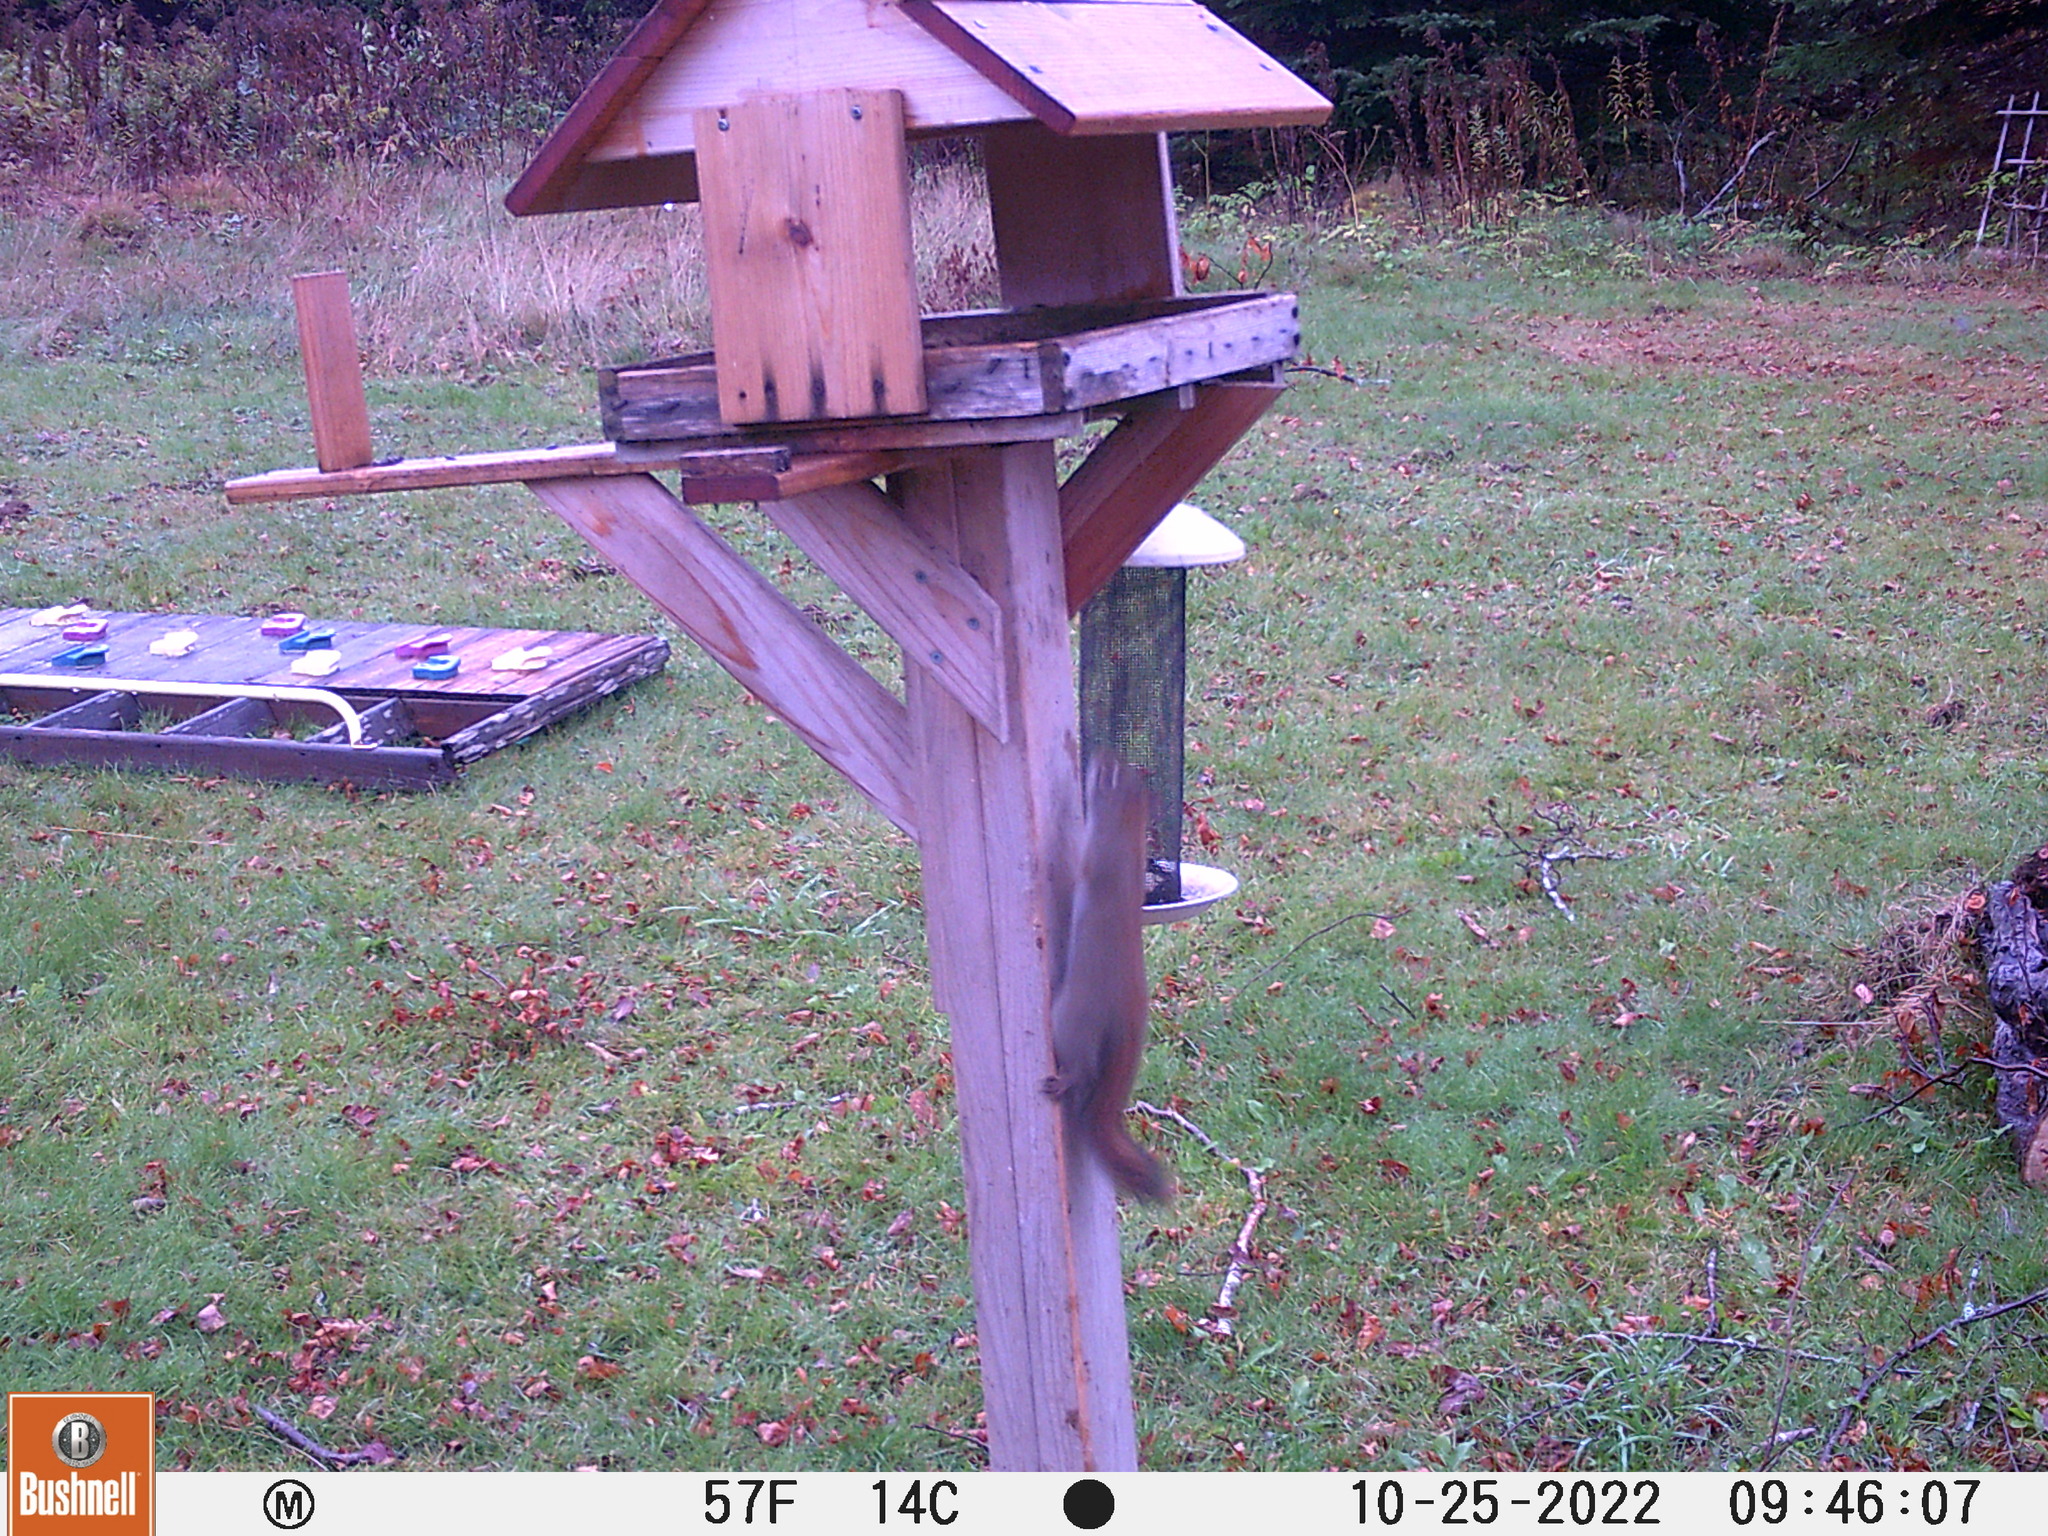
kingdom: Animalia
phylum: Chordata
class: Mammalia
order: Rodentia
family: Sciuridae
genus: Tamiasciurus
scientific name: Tamiasciurus hudsonicus
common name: Red squirrel
